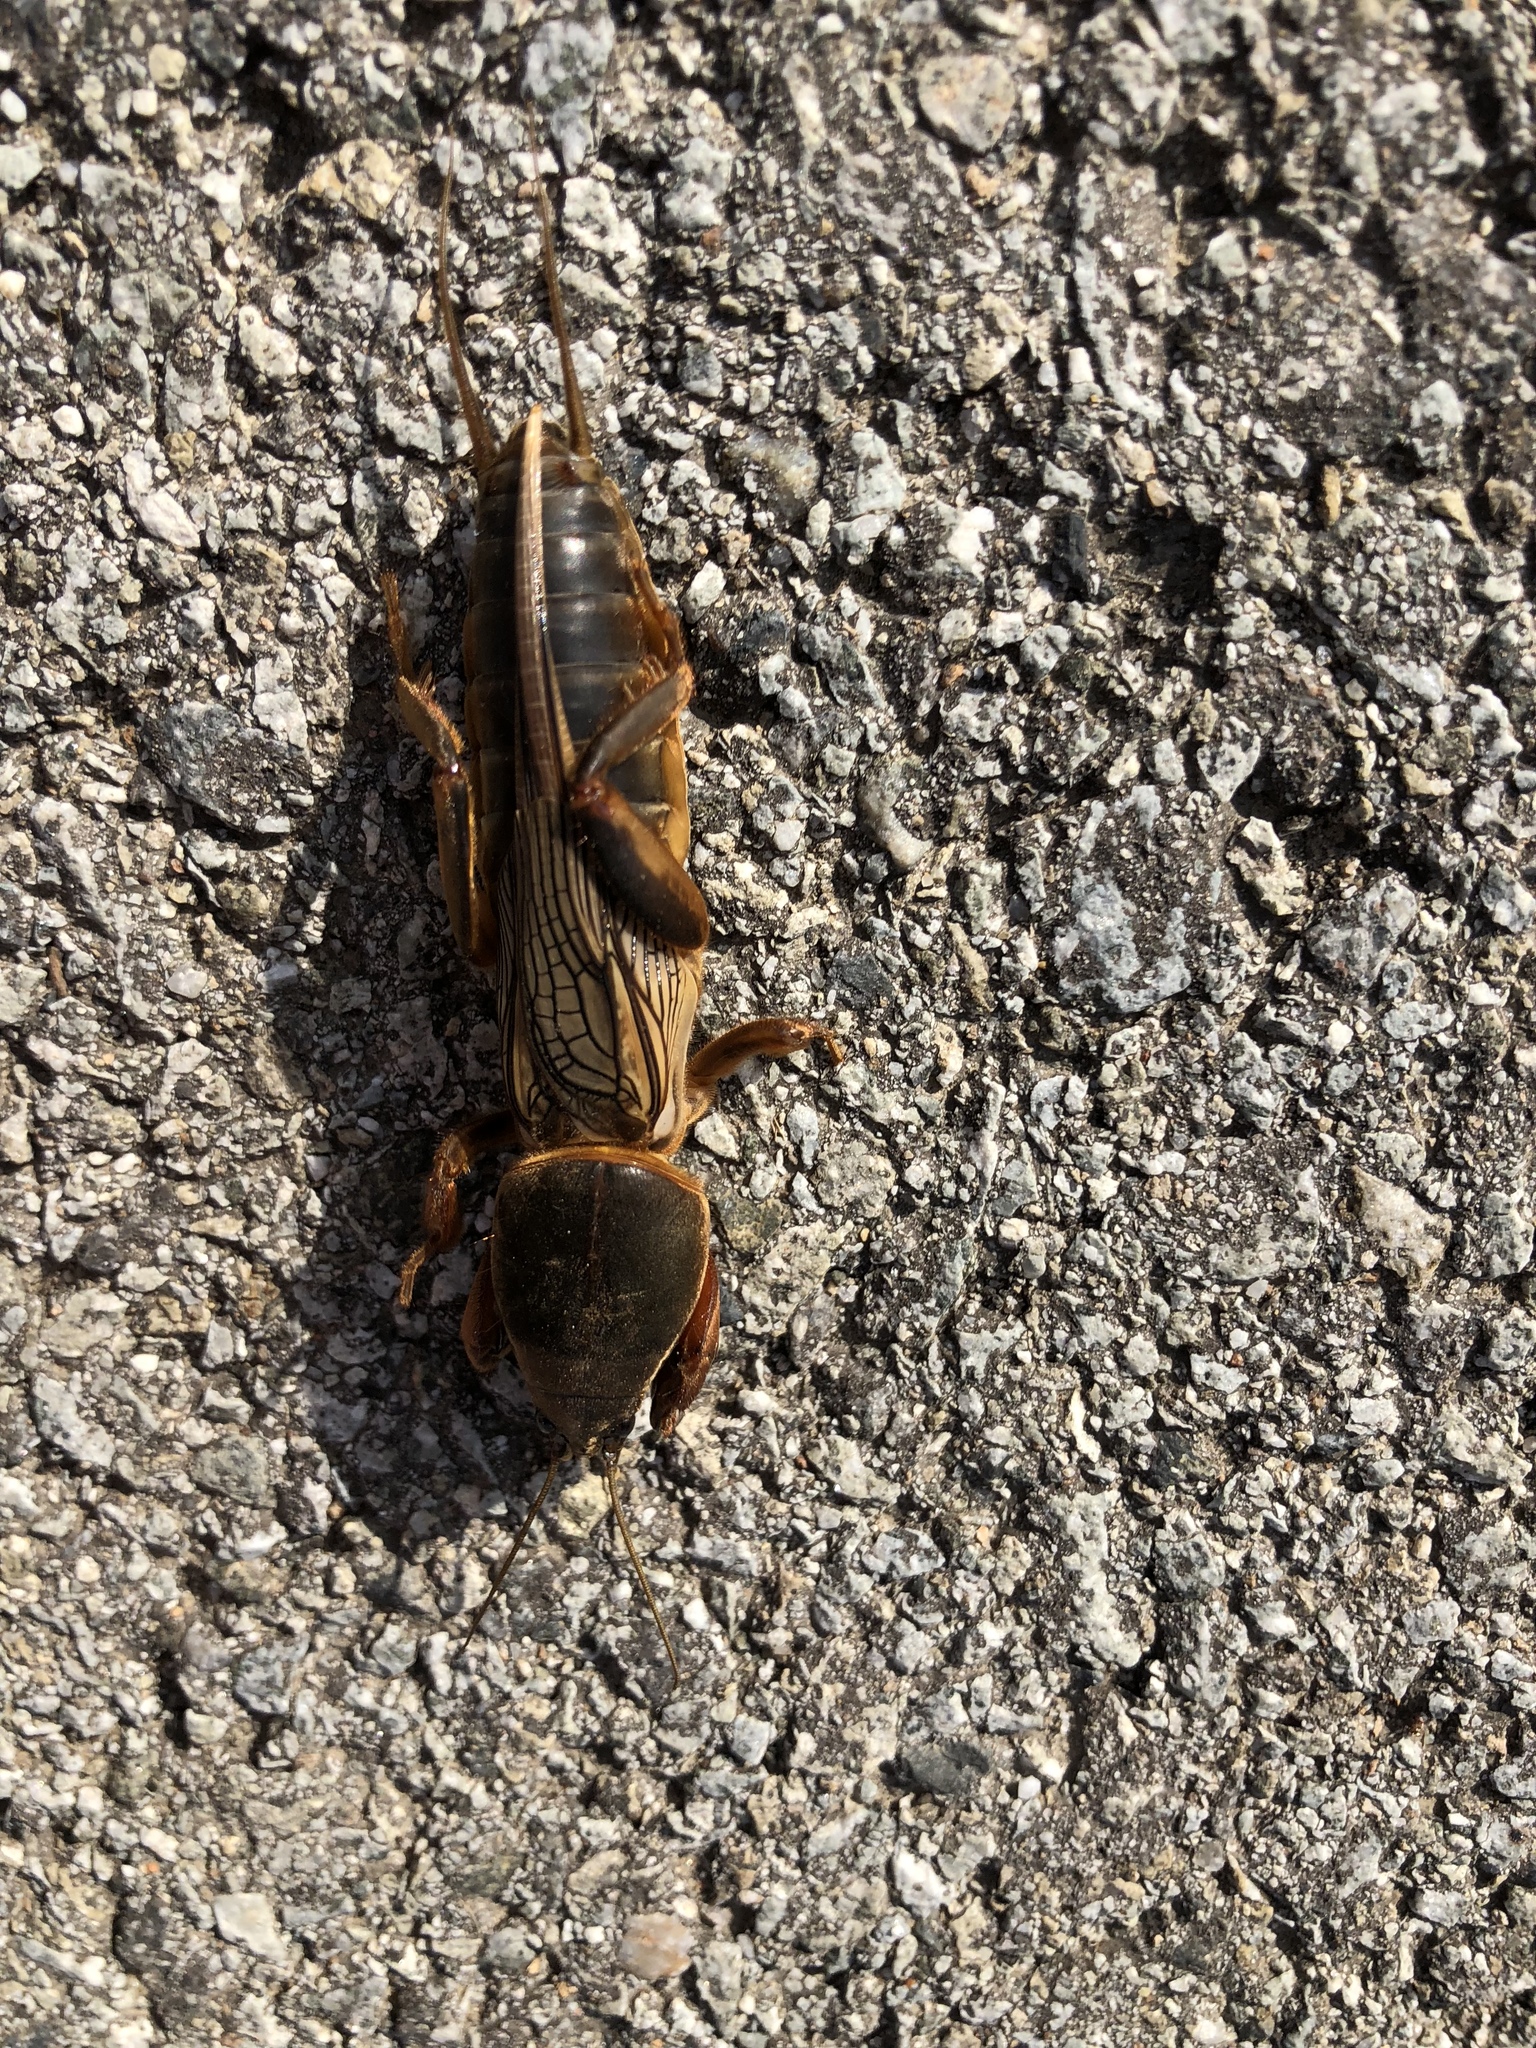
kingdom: Animalia
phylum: Arthropoda
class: Insecta
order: Orthoptera
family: Gryllotalpidae
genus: Gryllotalpa
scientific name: Gryllotalpa gryllotalpa
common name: European mole cricket
